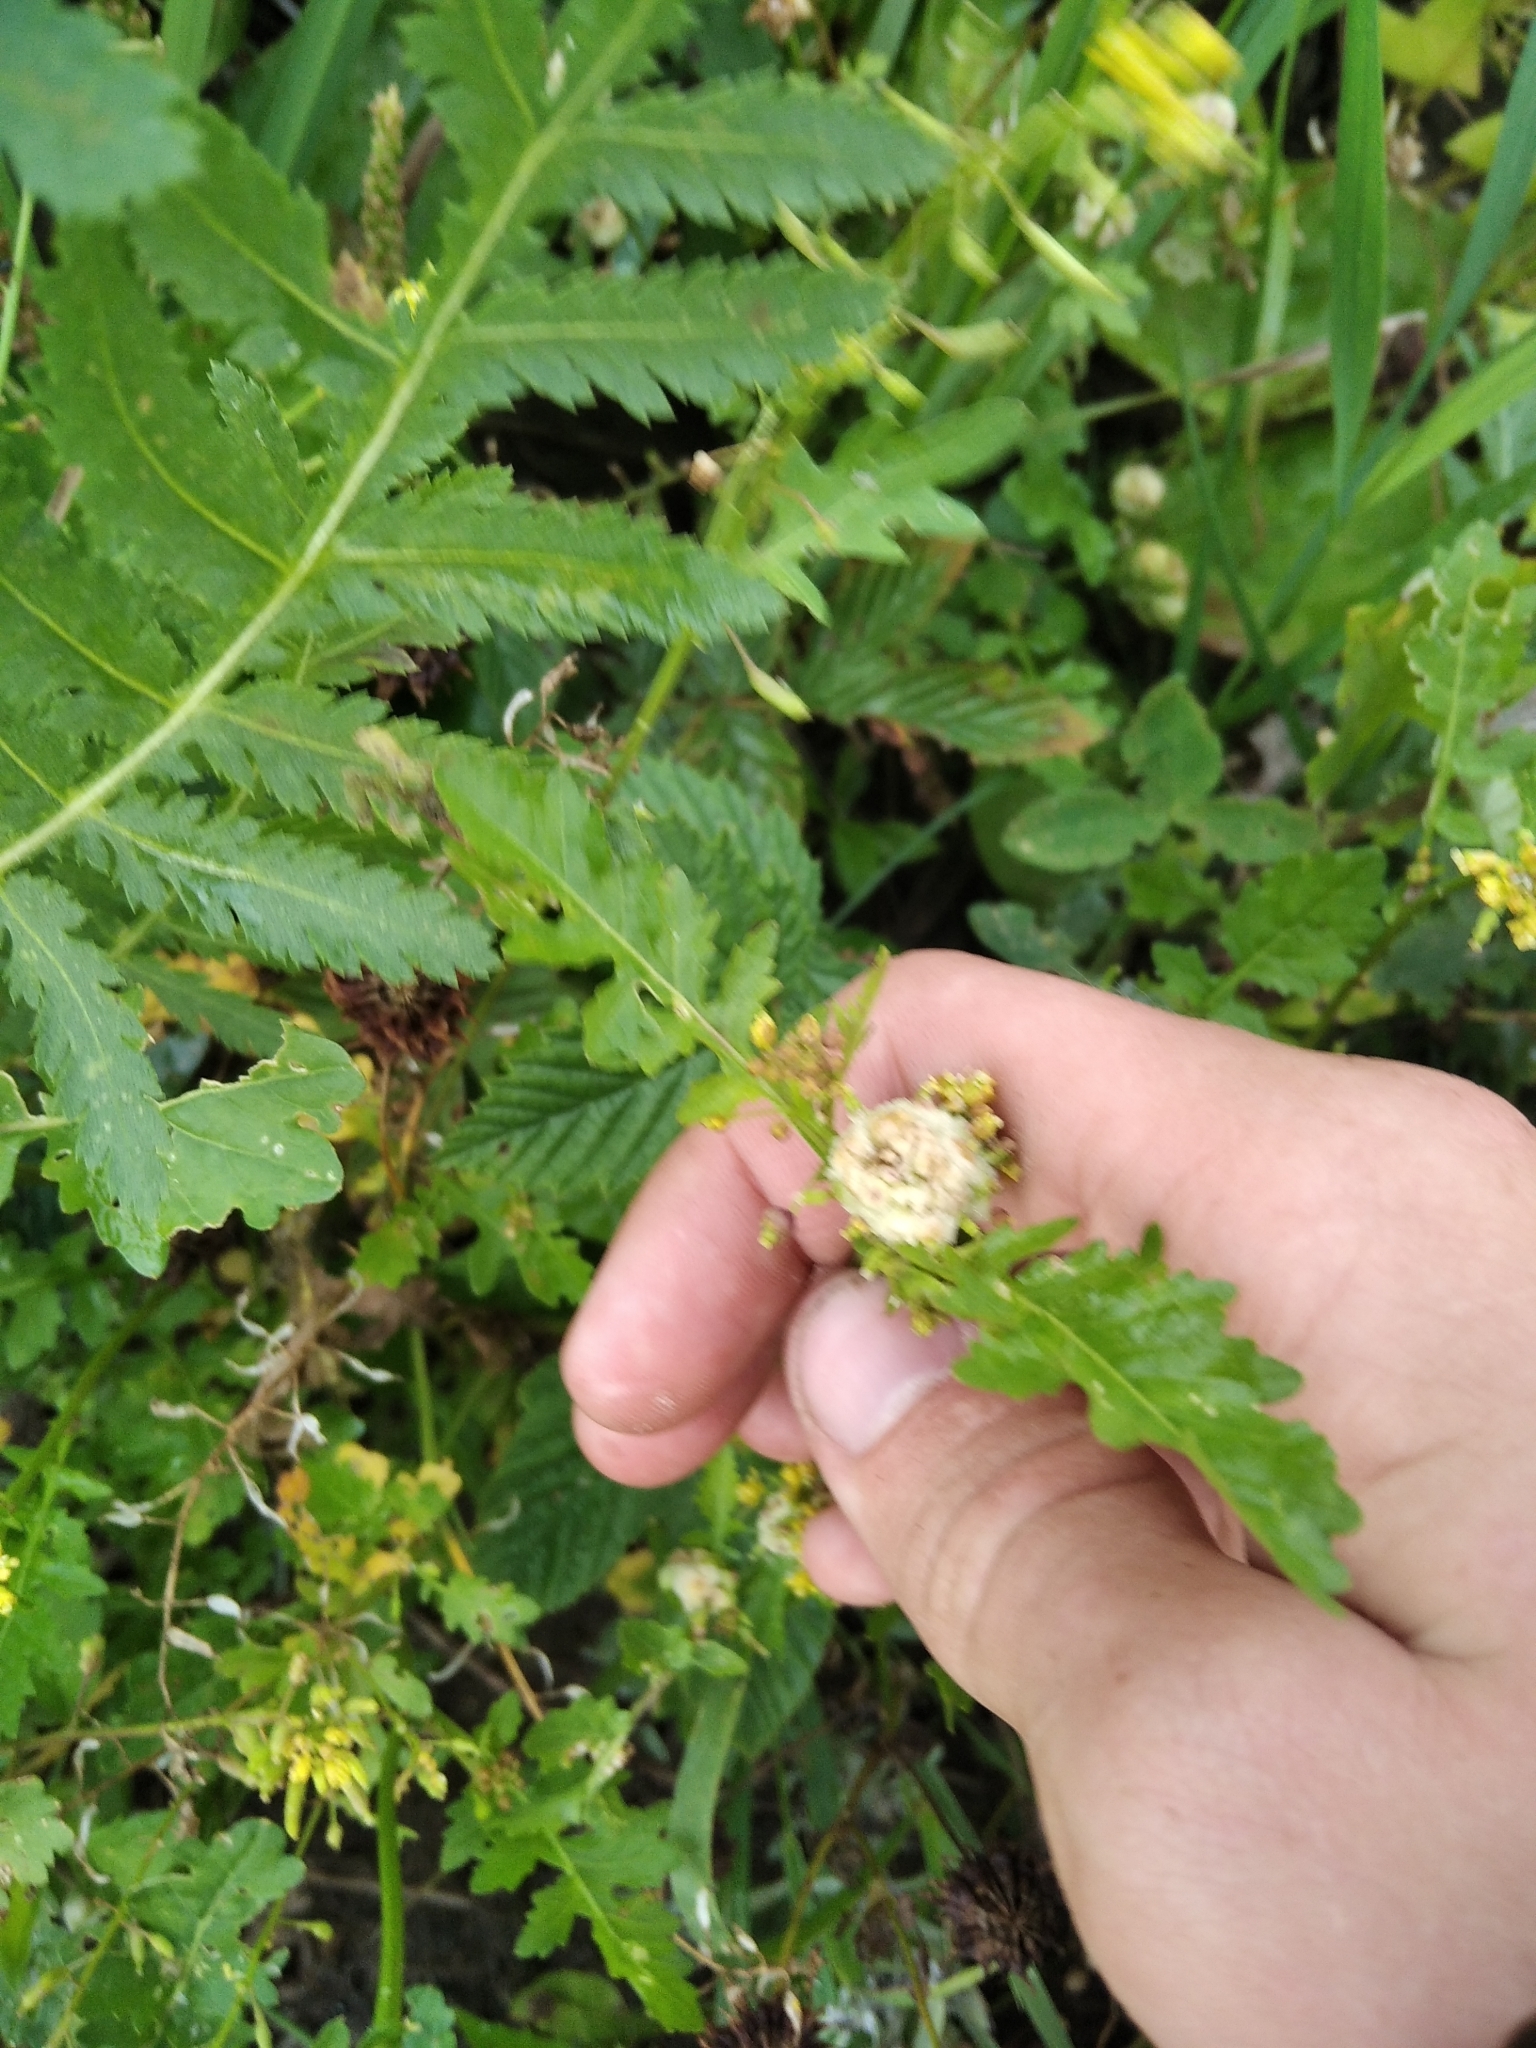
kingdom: Plantae
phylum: Tracheophyta
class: Magnoliopsida
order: Brassicales
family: Brassicaceae
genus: Rorippa
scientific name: Rorippa palustris
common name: Marsh yellow-cress
